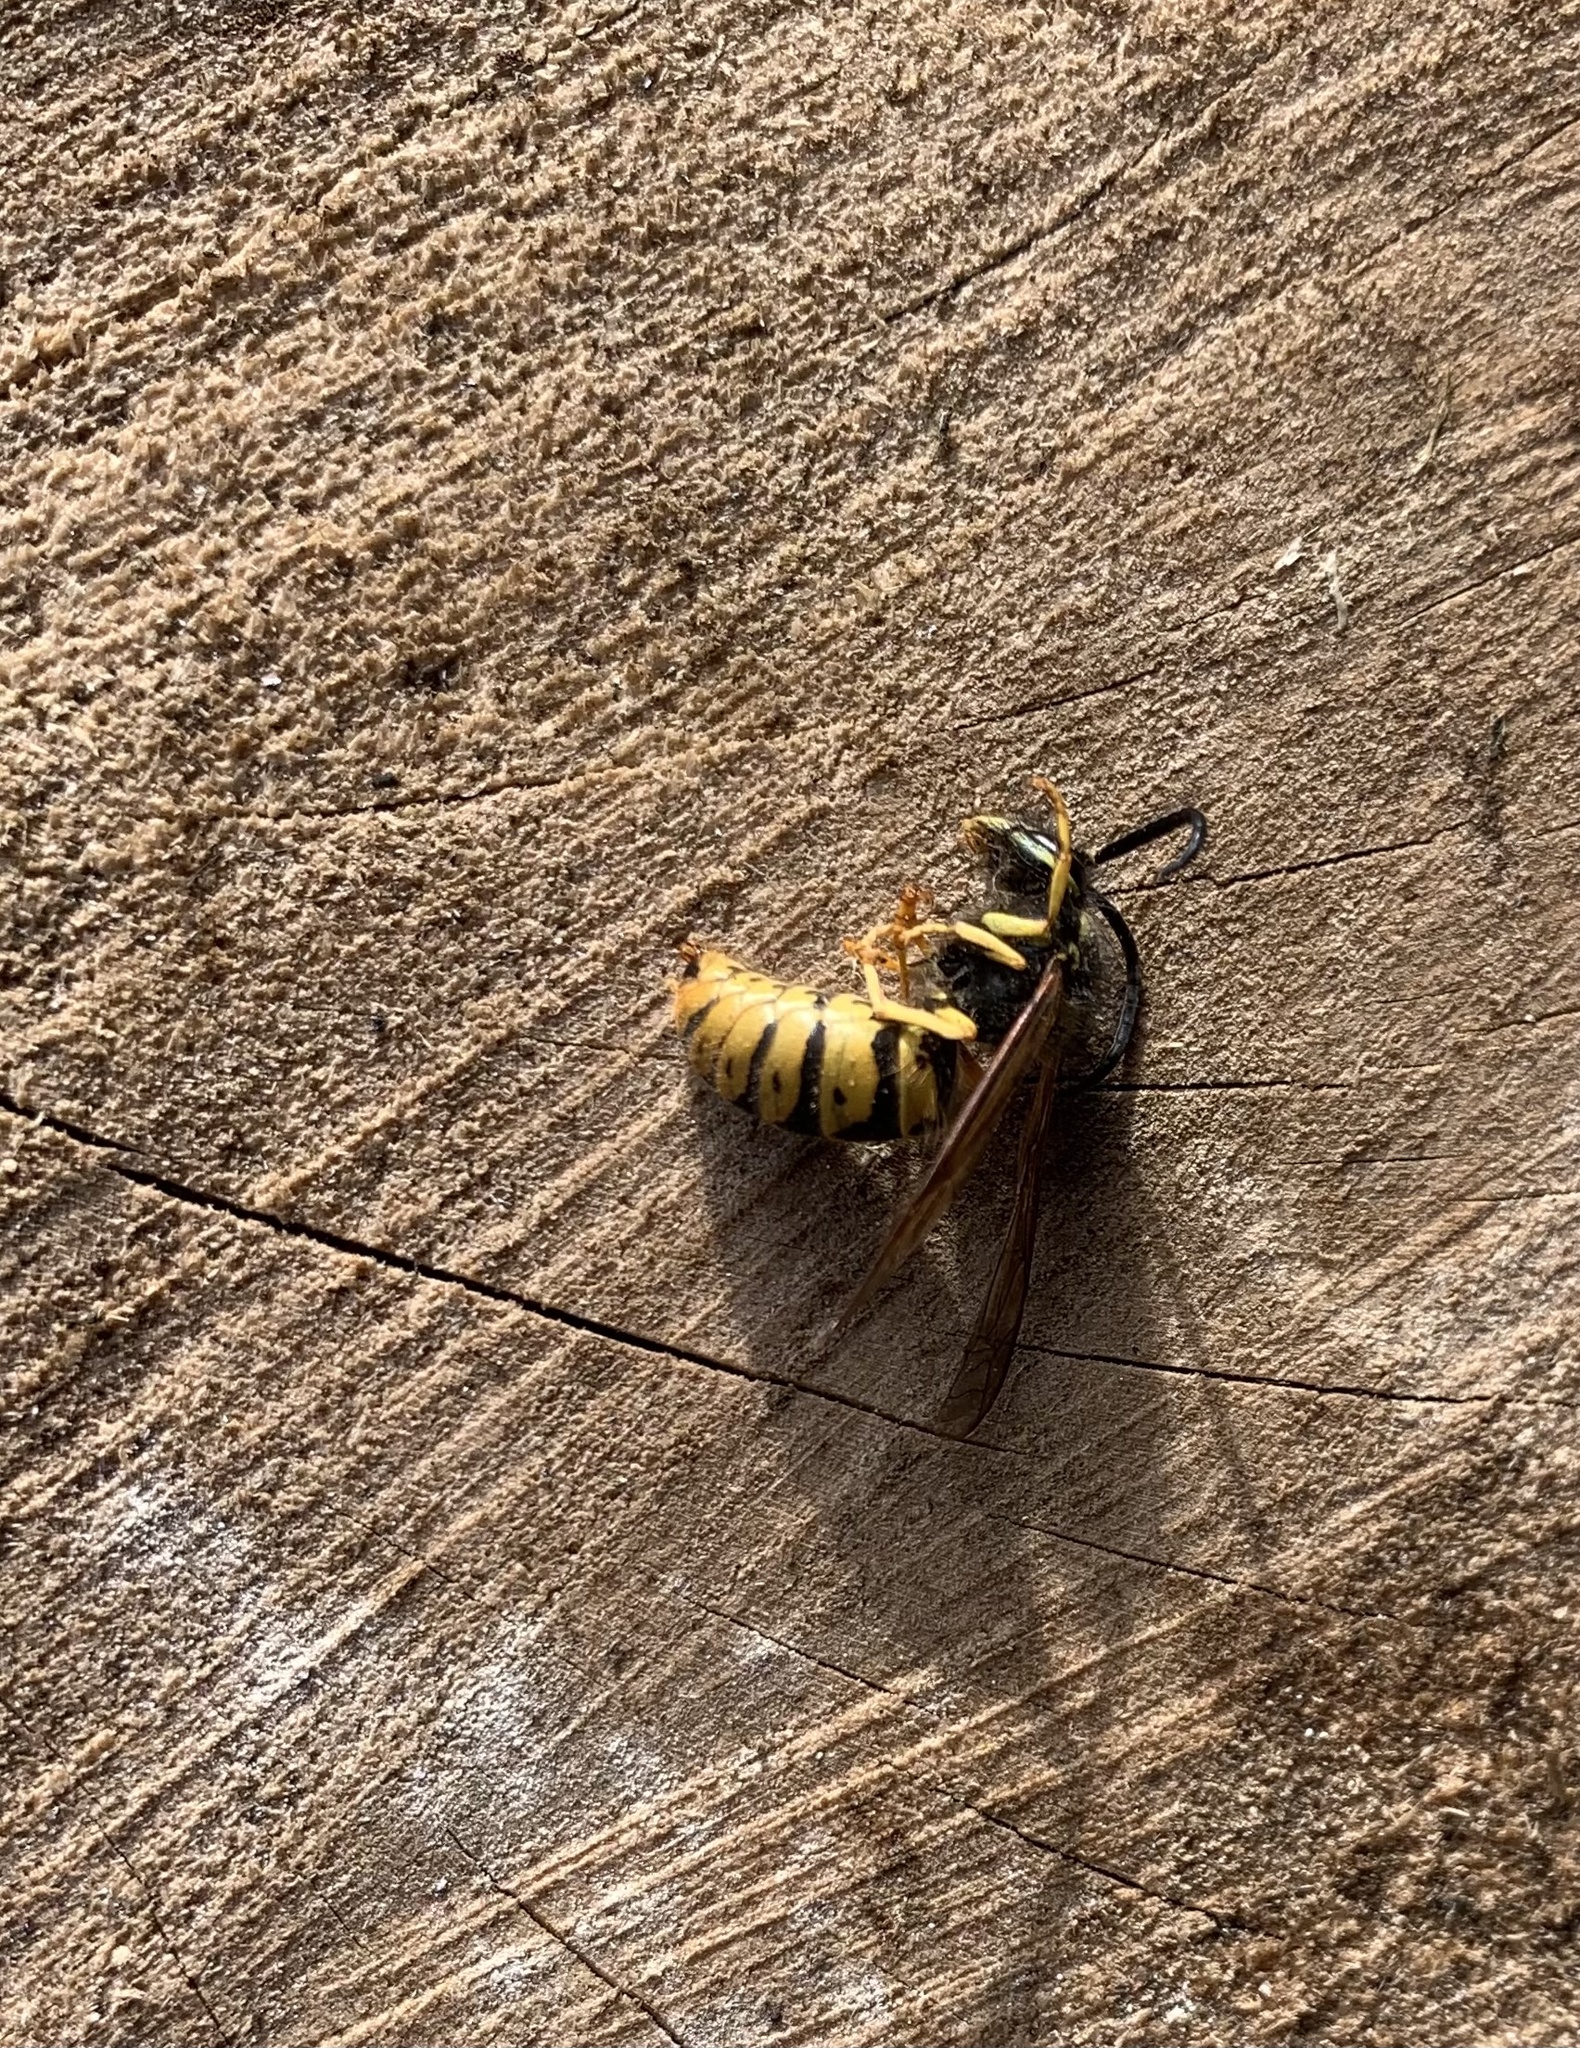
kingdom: Animalia
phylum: Arthropoda
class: Insecta
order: Hymenoptera
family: Vespidae
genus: Vespula
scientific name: Vespula germanica
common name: German wasp
